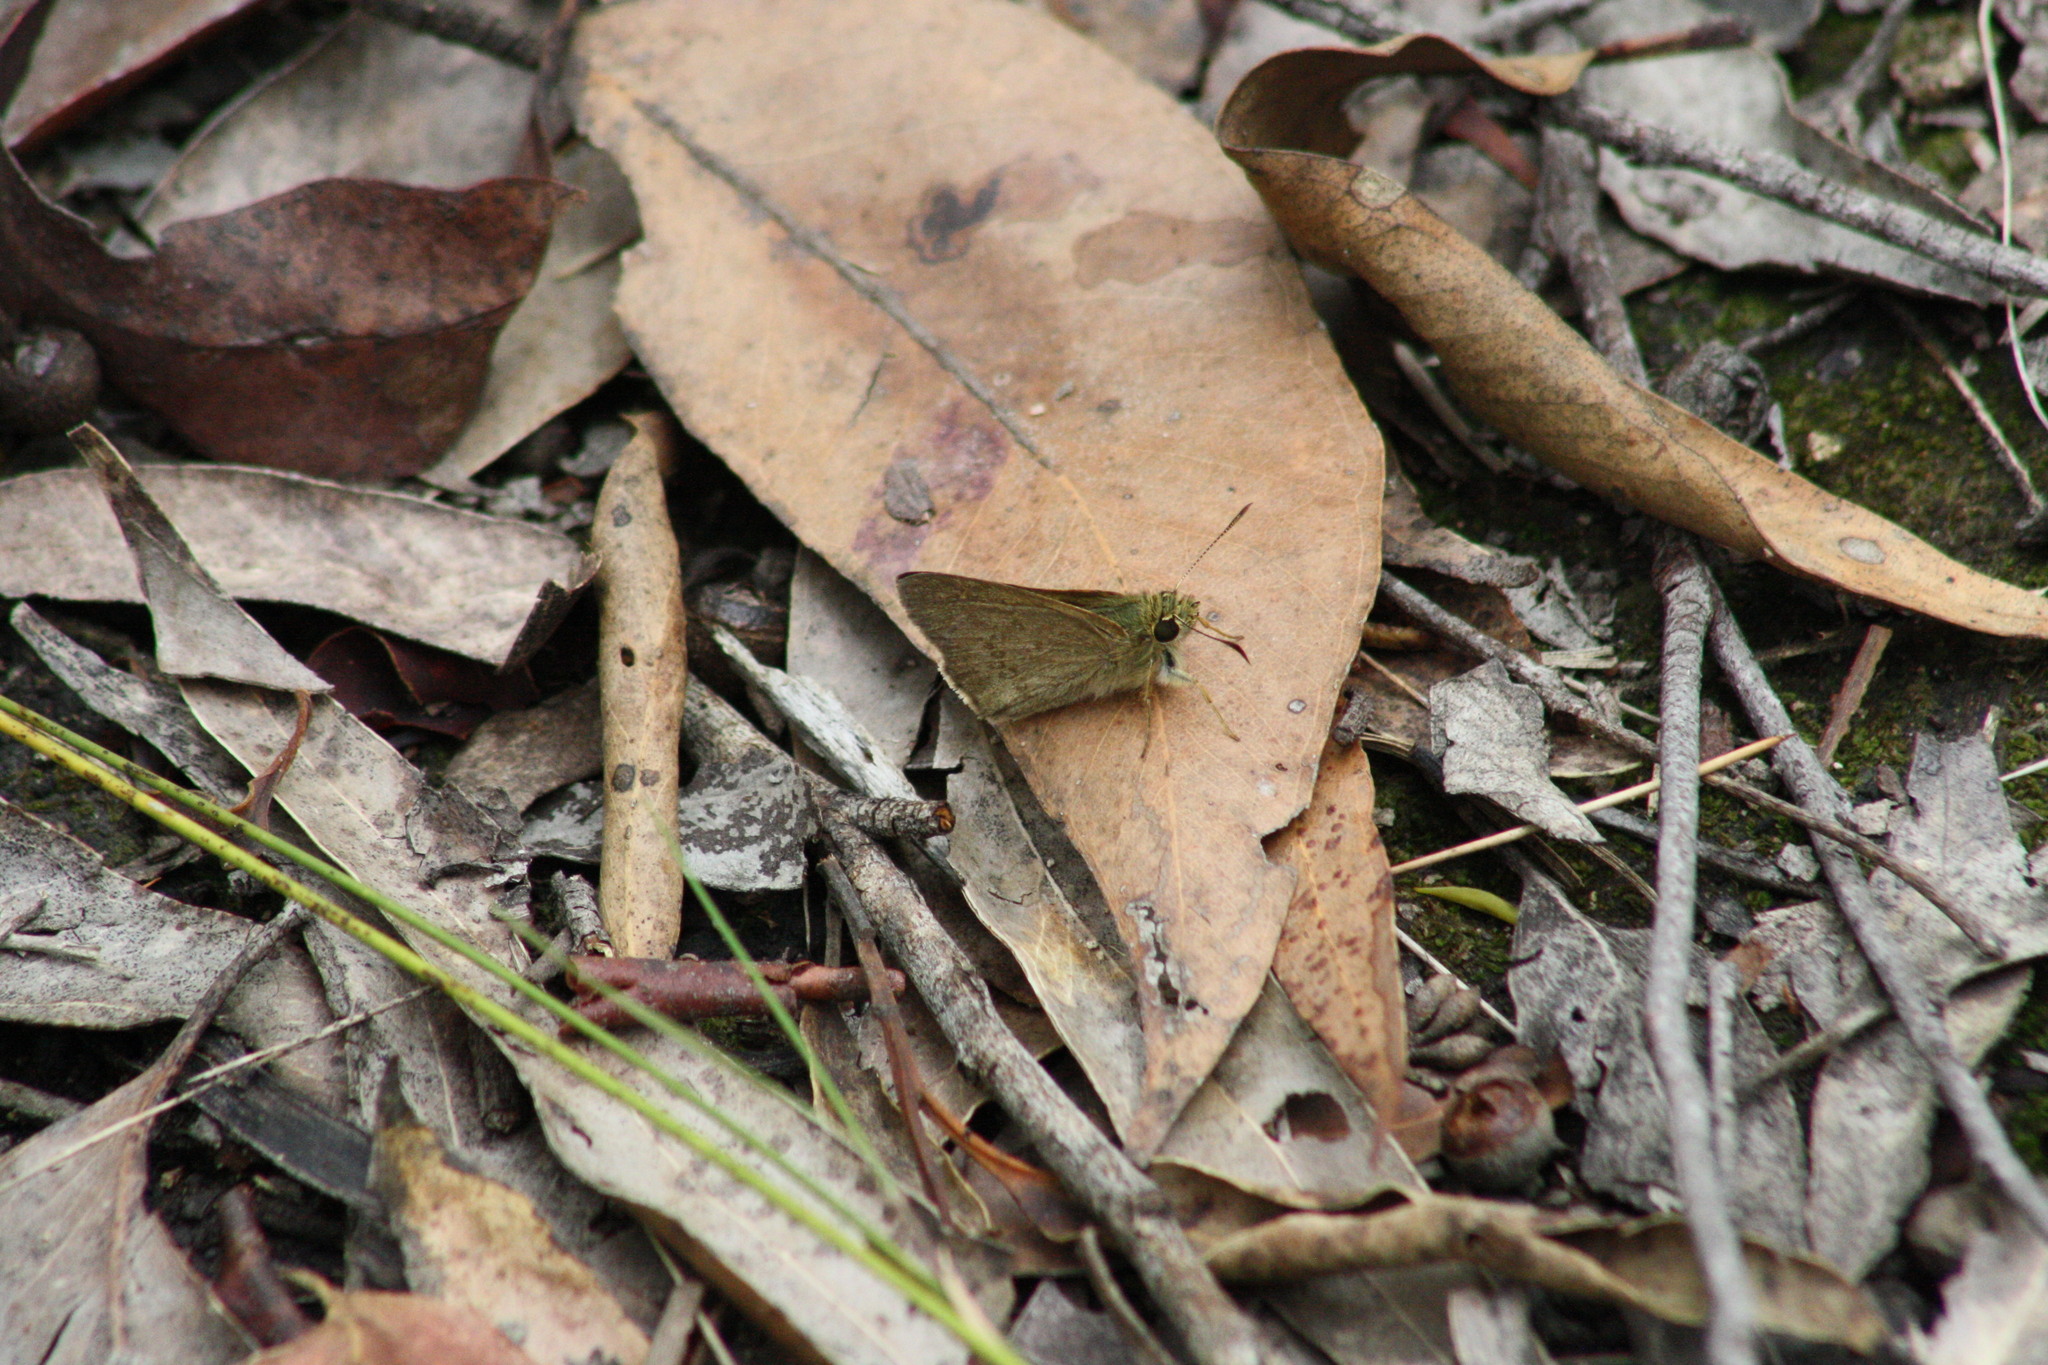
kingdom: Animalia
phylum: Arthropoda
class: Insecta
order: Lepidoptera
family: Hesperiidae
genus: Toxidia
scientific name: Toxidia
